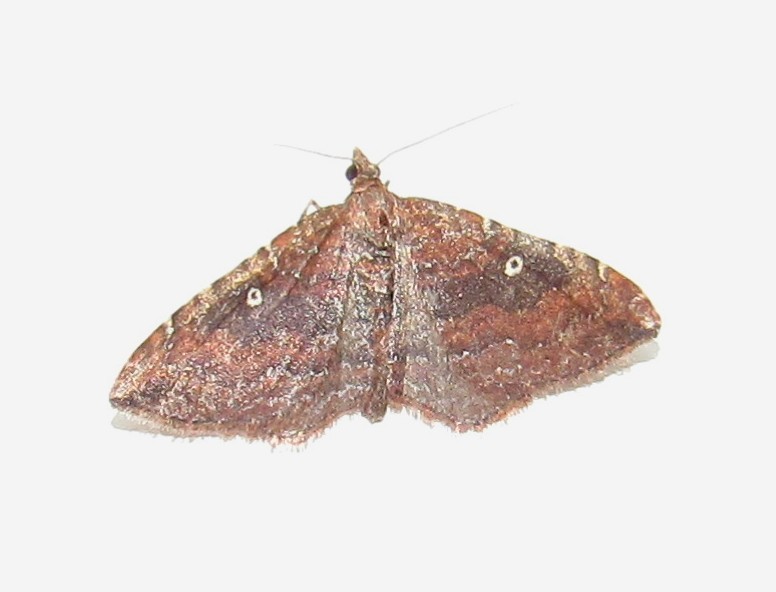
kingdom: Animalia
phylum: Arthropoda
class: Insecta
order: Lepidoptera
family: Geometridae
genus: Orthonama
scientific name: Orthonama obstipata
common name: The gem
